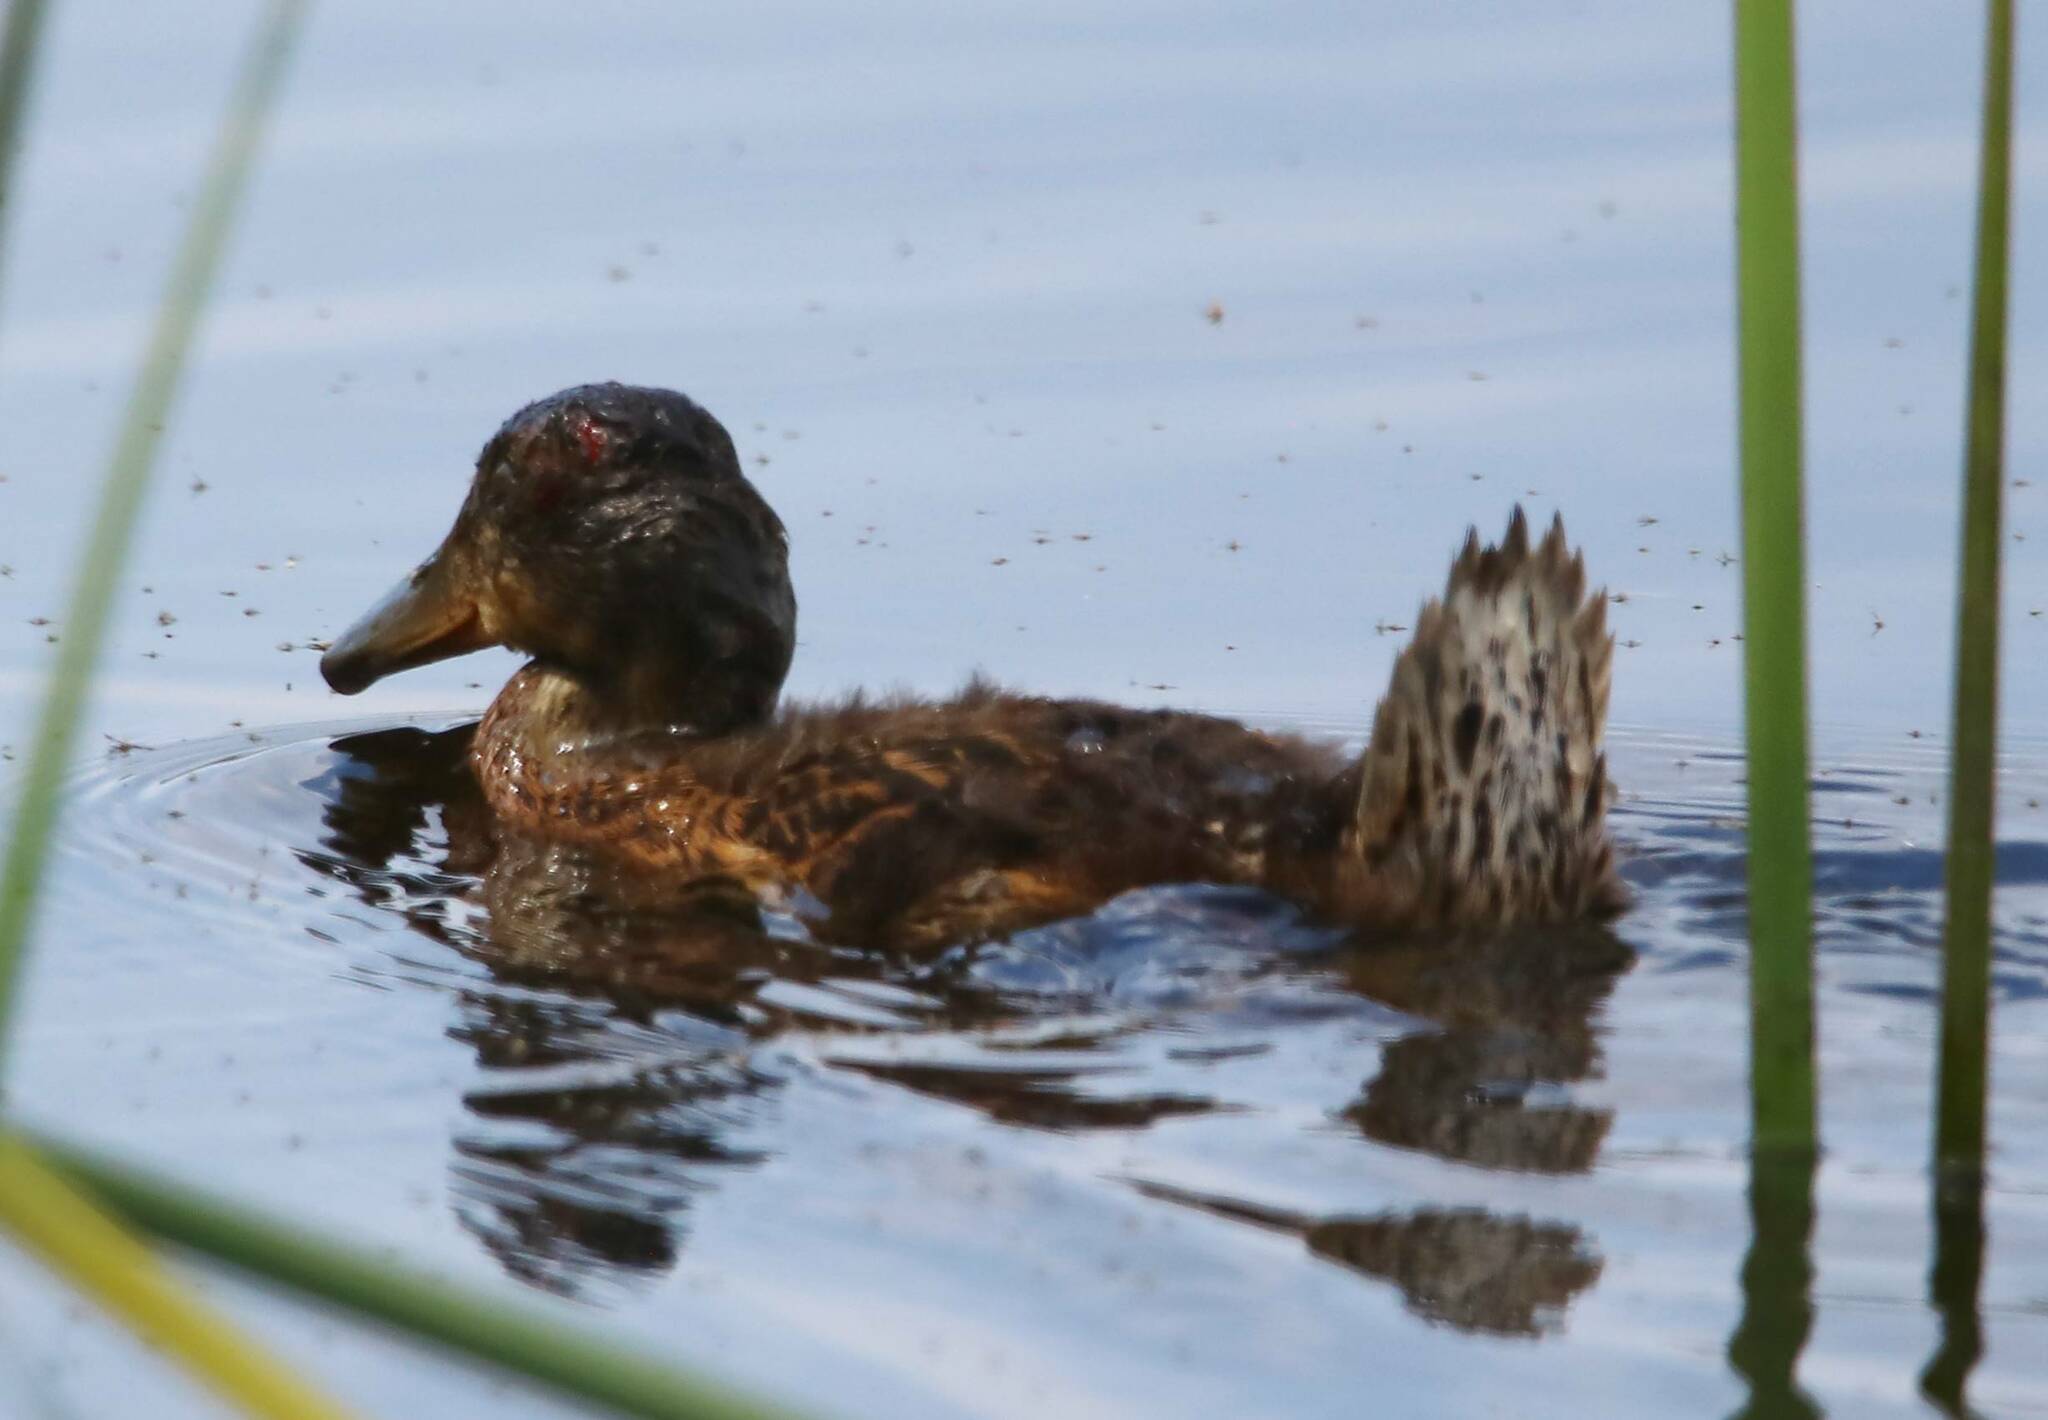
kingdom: Animalia
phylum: Chordata
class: Aves
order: Anseriformes
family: Anatidae
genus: Anas
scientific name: Anas platyrhynchos
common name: Mallard
